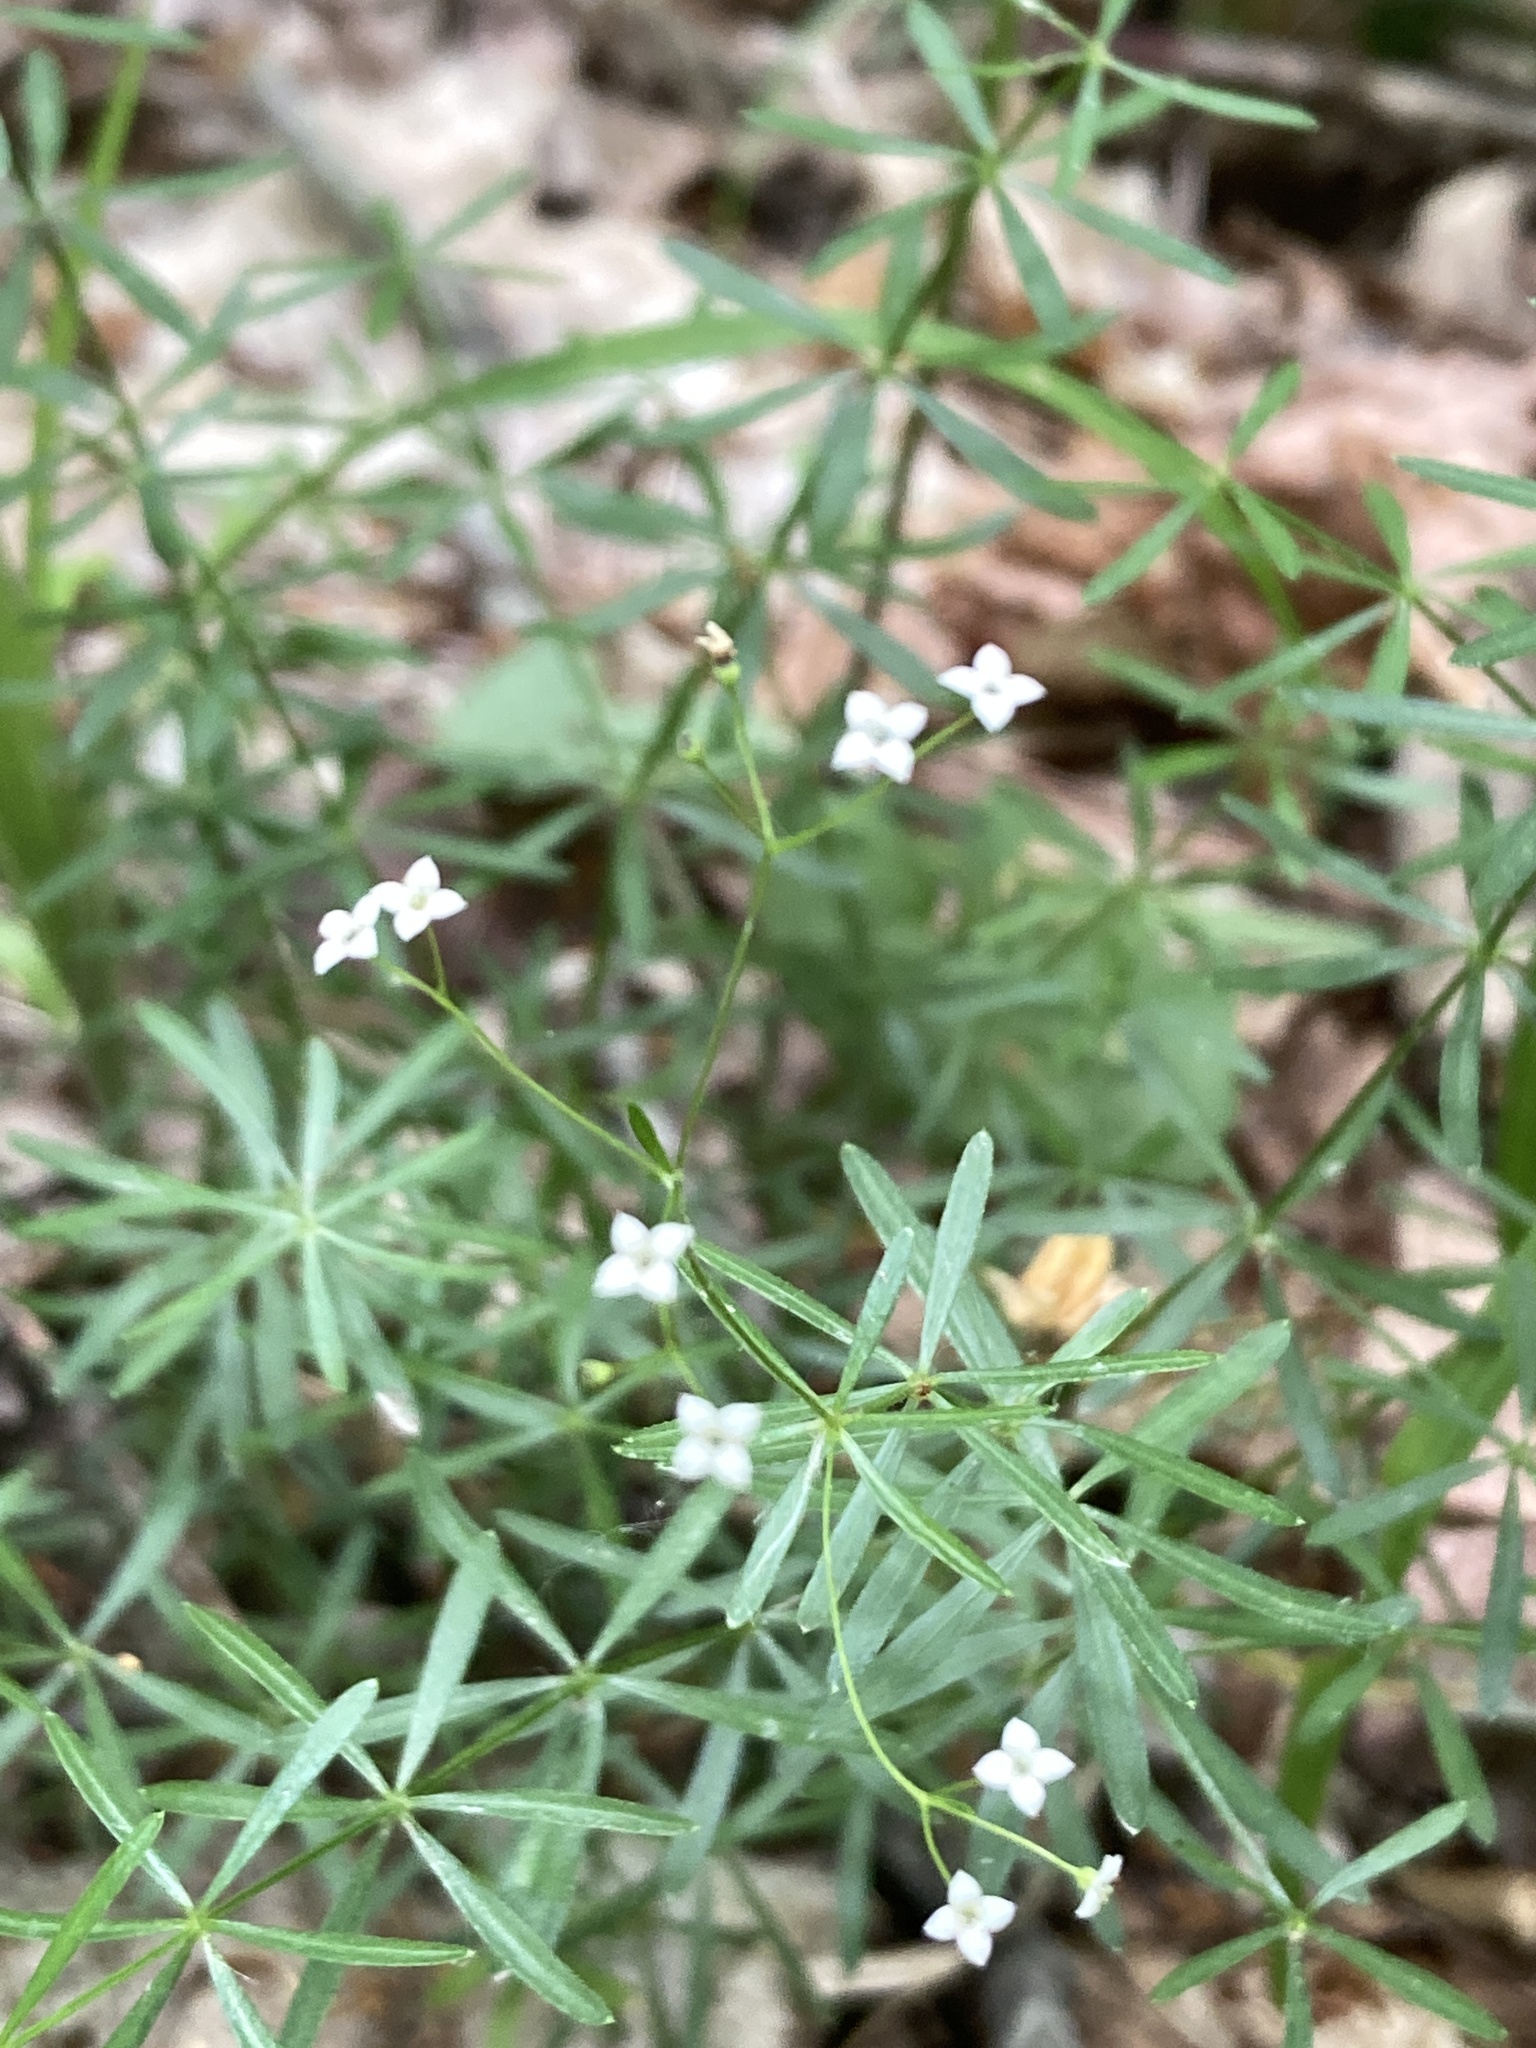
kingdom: Plantae
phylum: Tracheophyta
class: Magnoliopsida
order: Gentianales
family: Rubiaceae
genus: Galium
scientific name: Galium concinnum
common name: Shining bedstraw
